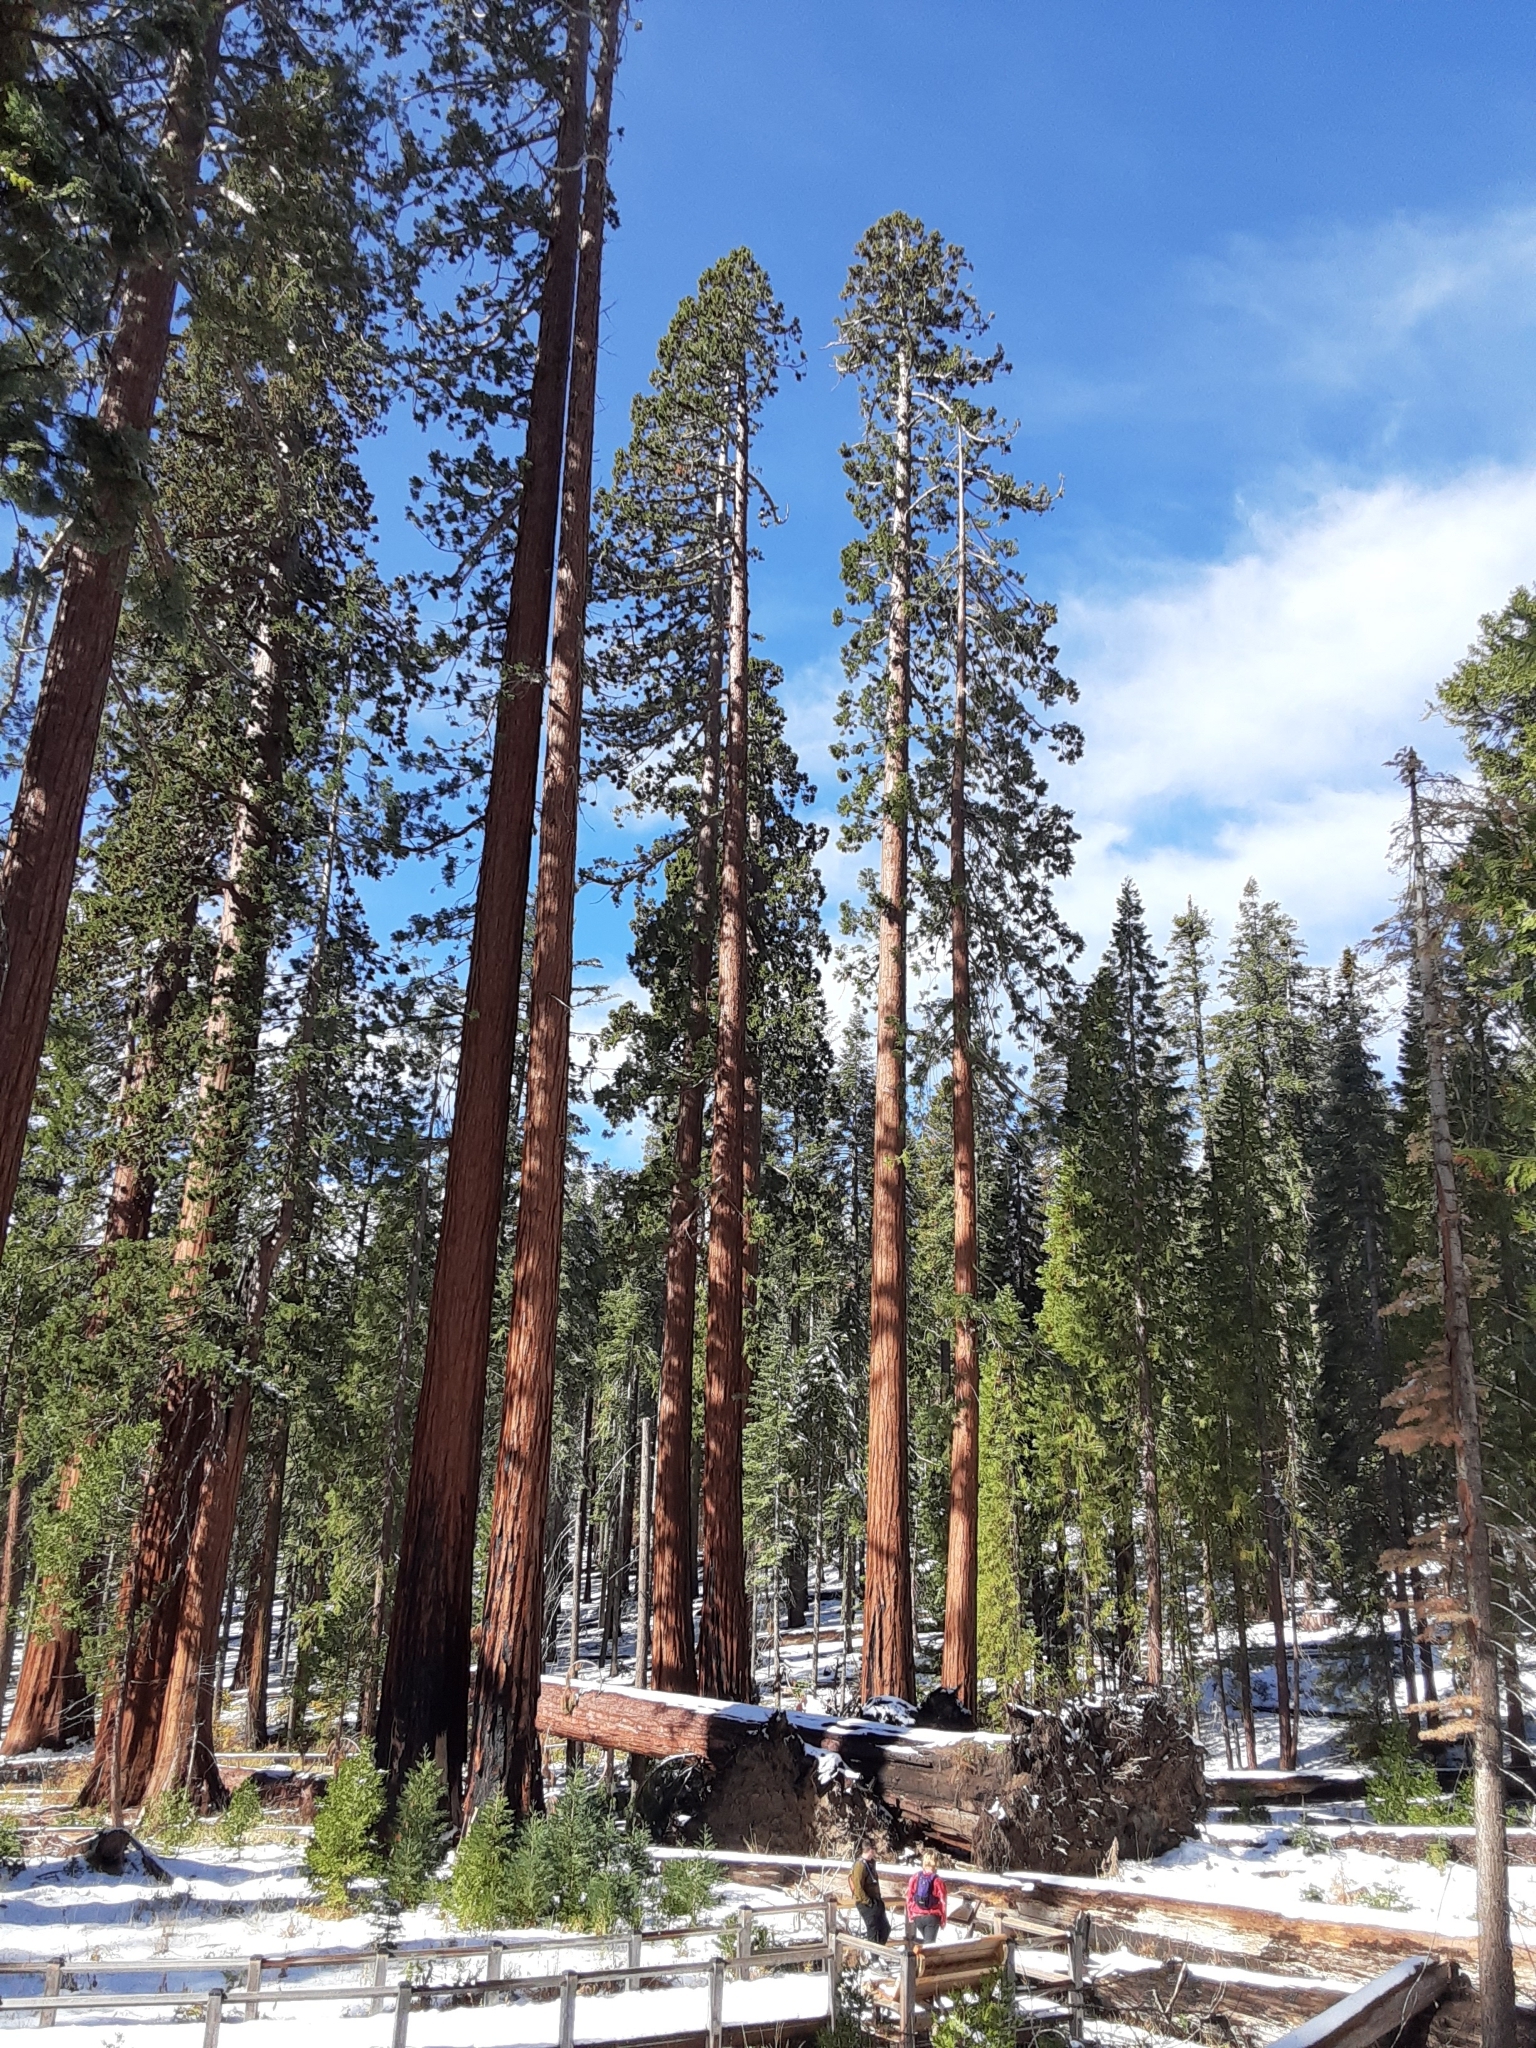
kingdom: Plantae
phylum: Tracheophyta
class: Pinopsida
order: Pinales
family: Cupressaceae
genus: Sequoiadendron
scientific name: Sequoiadendron giganteum
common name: Wellingtonia
